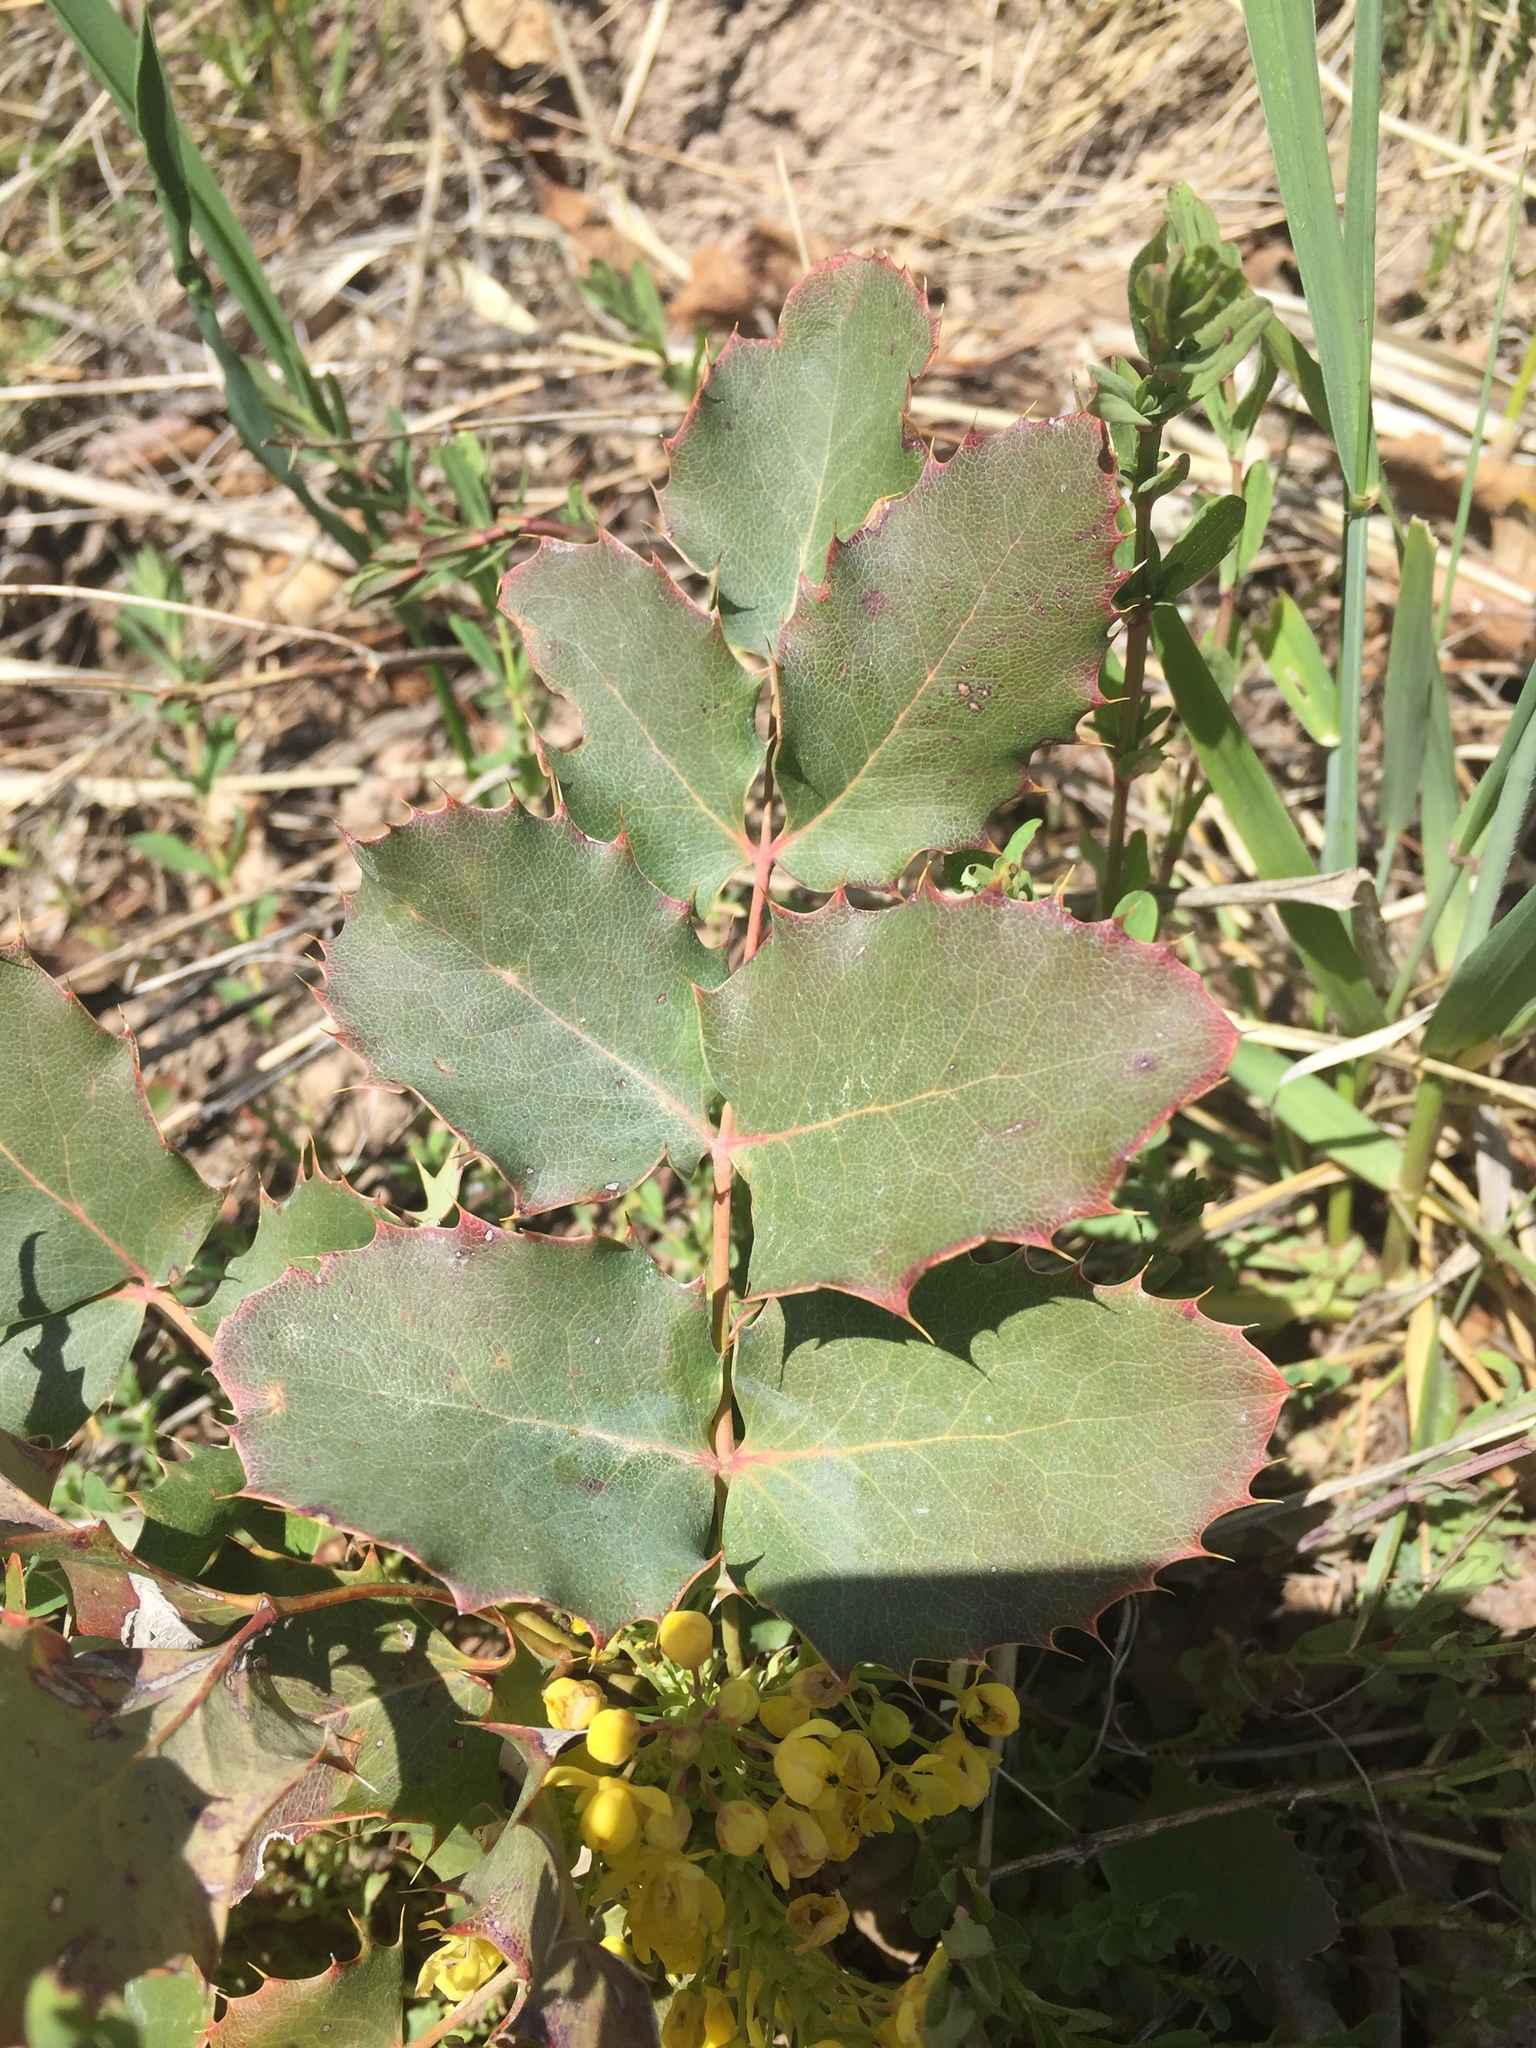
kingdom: Plantae
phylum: Tracheophyta
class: Magnoliopsida
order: Ranunculales
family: Berberidaceae
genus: Mahonia
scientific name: Mahonia repens
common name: Creeping oregon-grape
